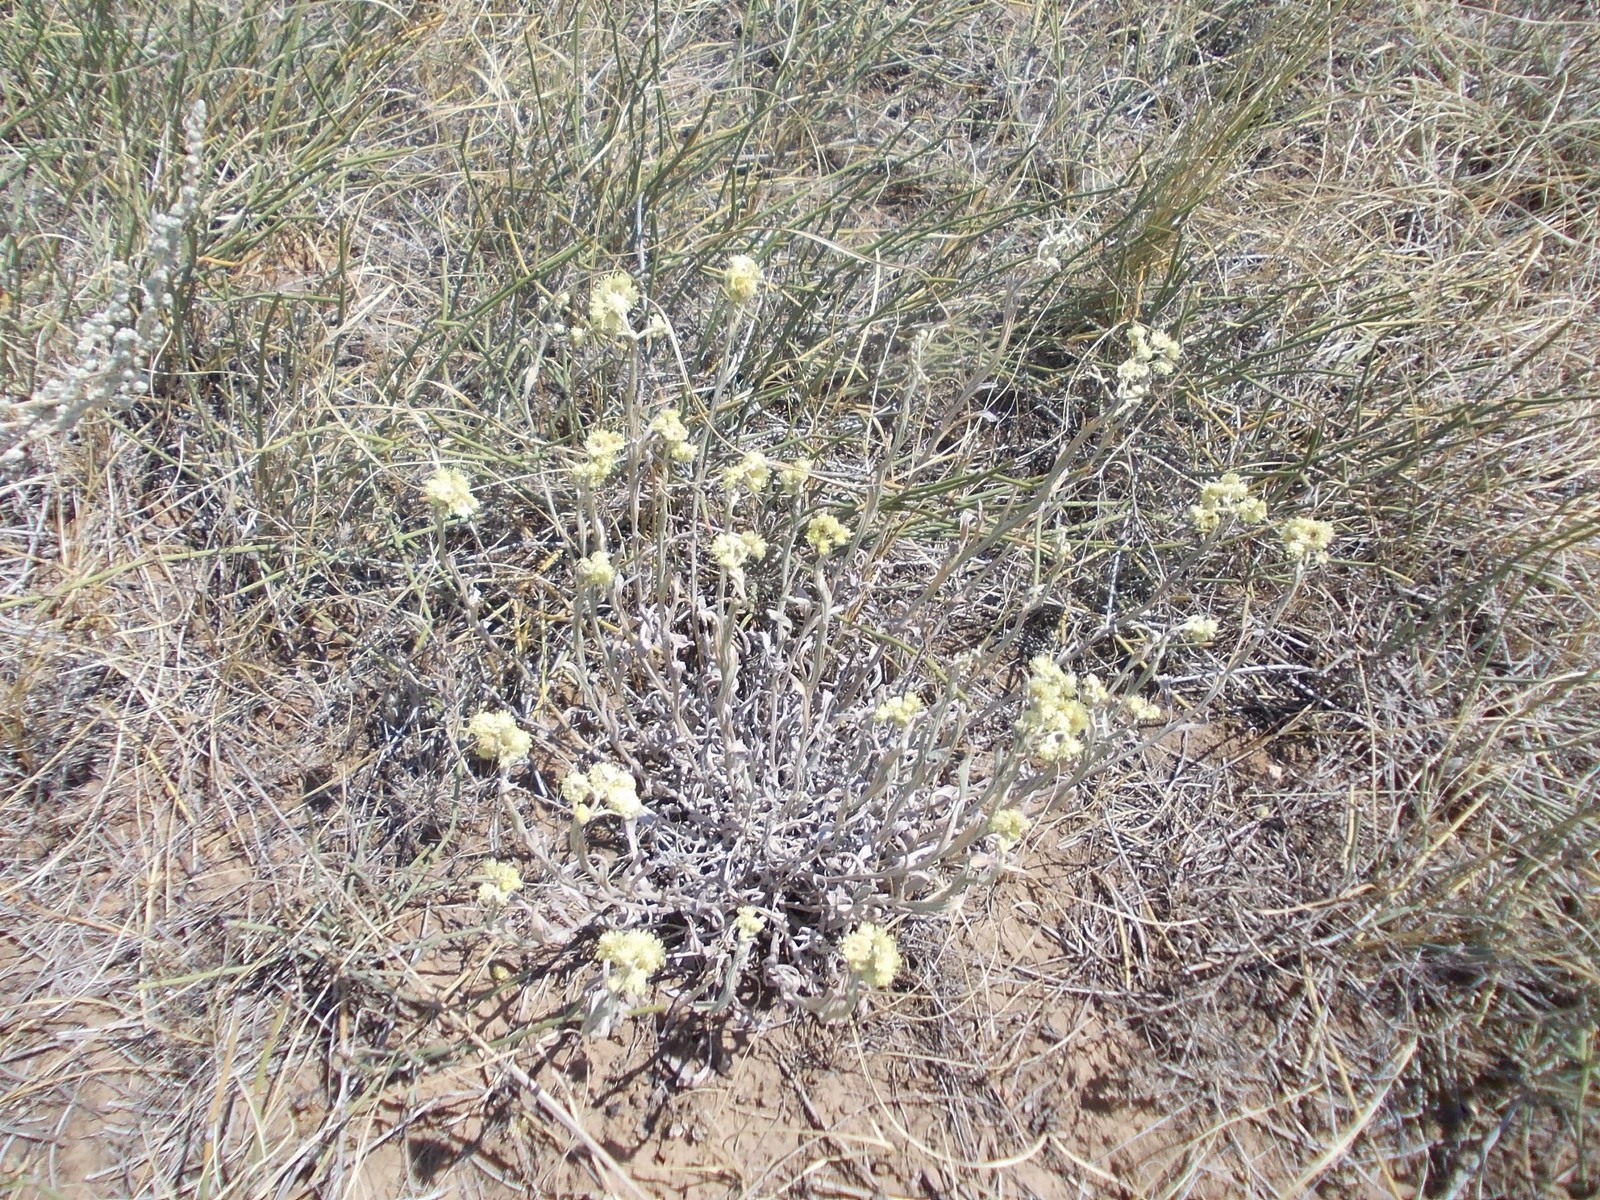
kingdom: Plantae
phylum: Tracheophyta
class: Magnoliopsida
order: Asterales
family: Asteraceae
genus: Helichrysum
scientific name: Helichrysum arenarium
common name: Strawflower
